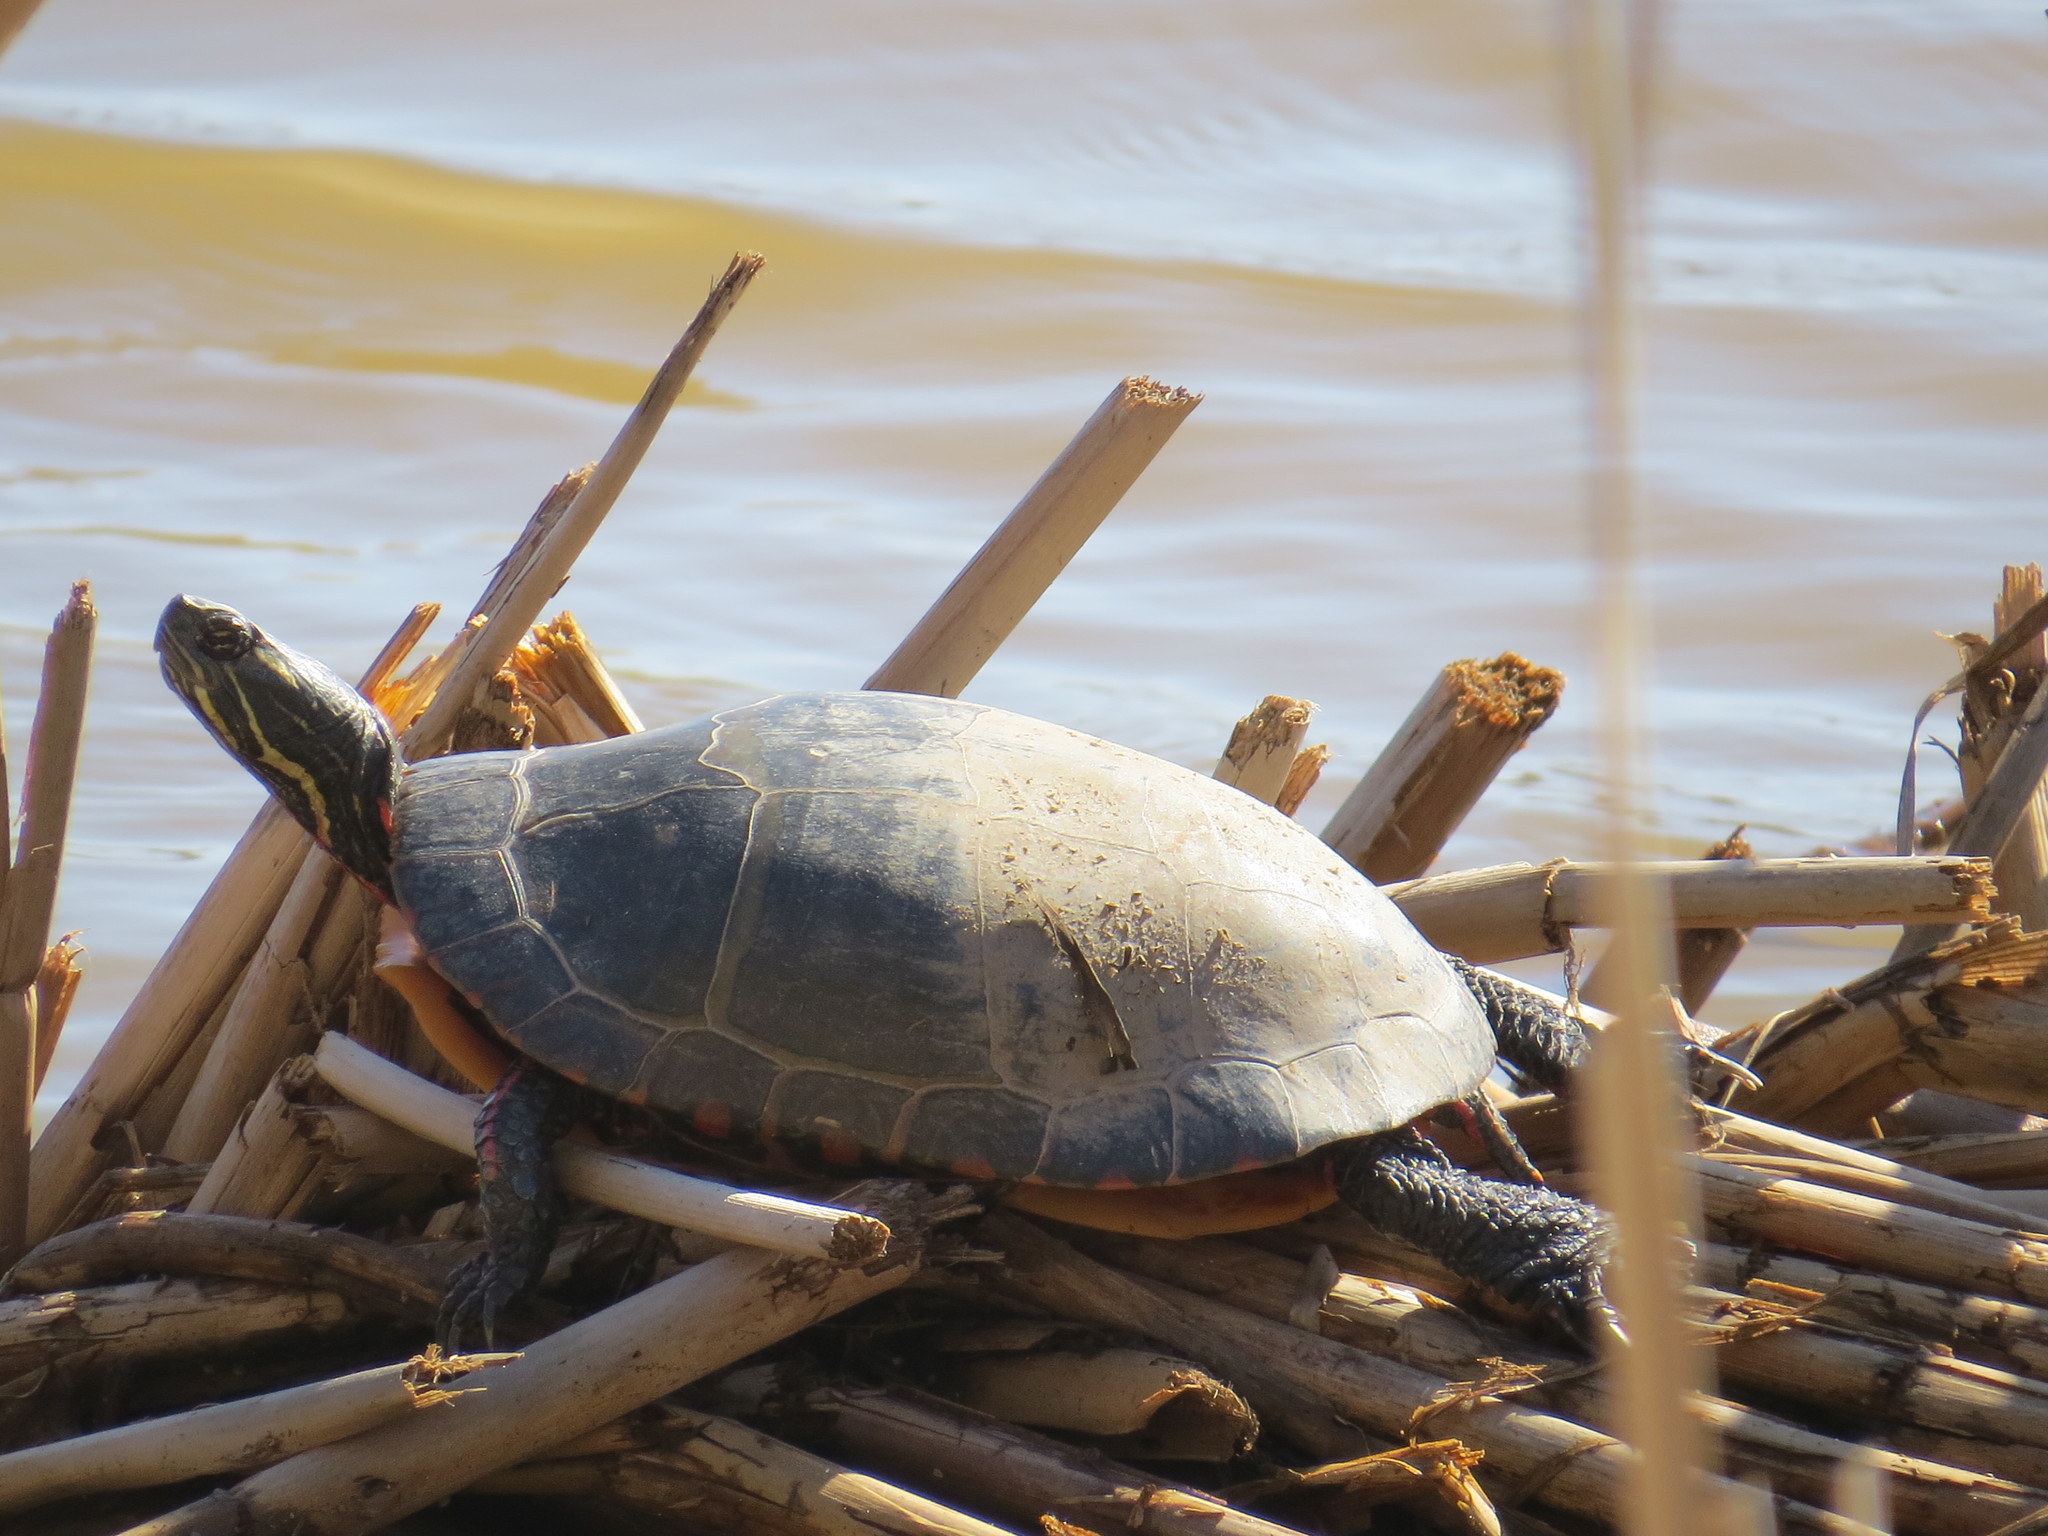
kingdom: Animalia
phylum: Chordata
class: Testudines
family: Emydidae
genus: Chrysemys
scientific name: Chrysemys picta
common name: Painted turtle
